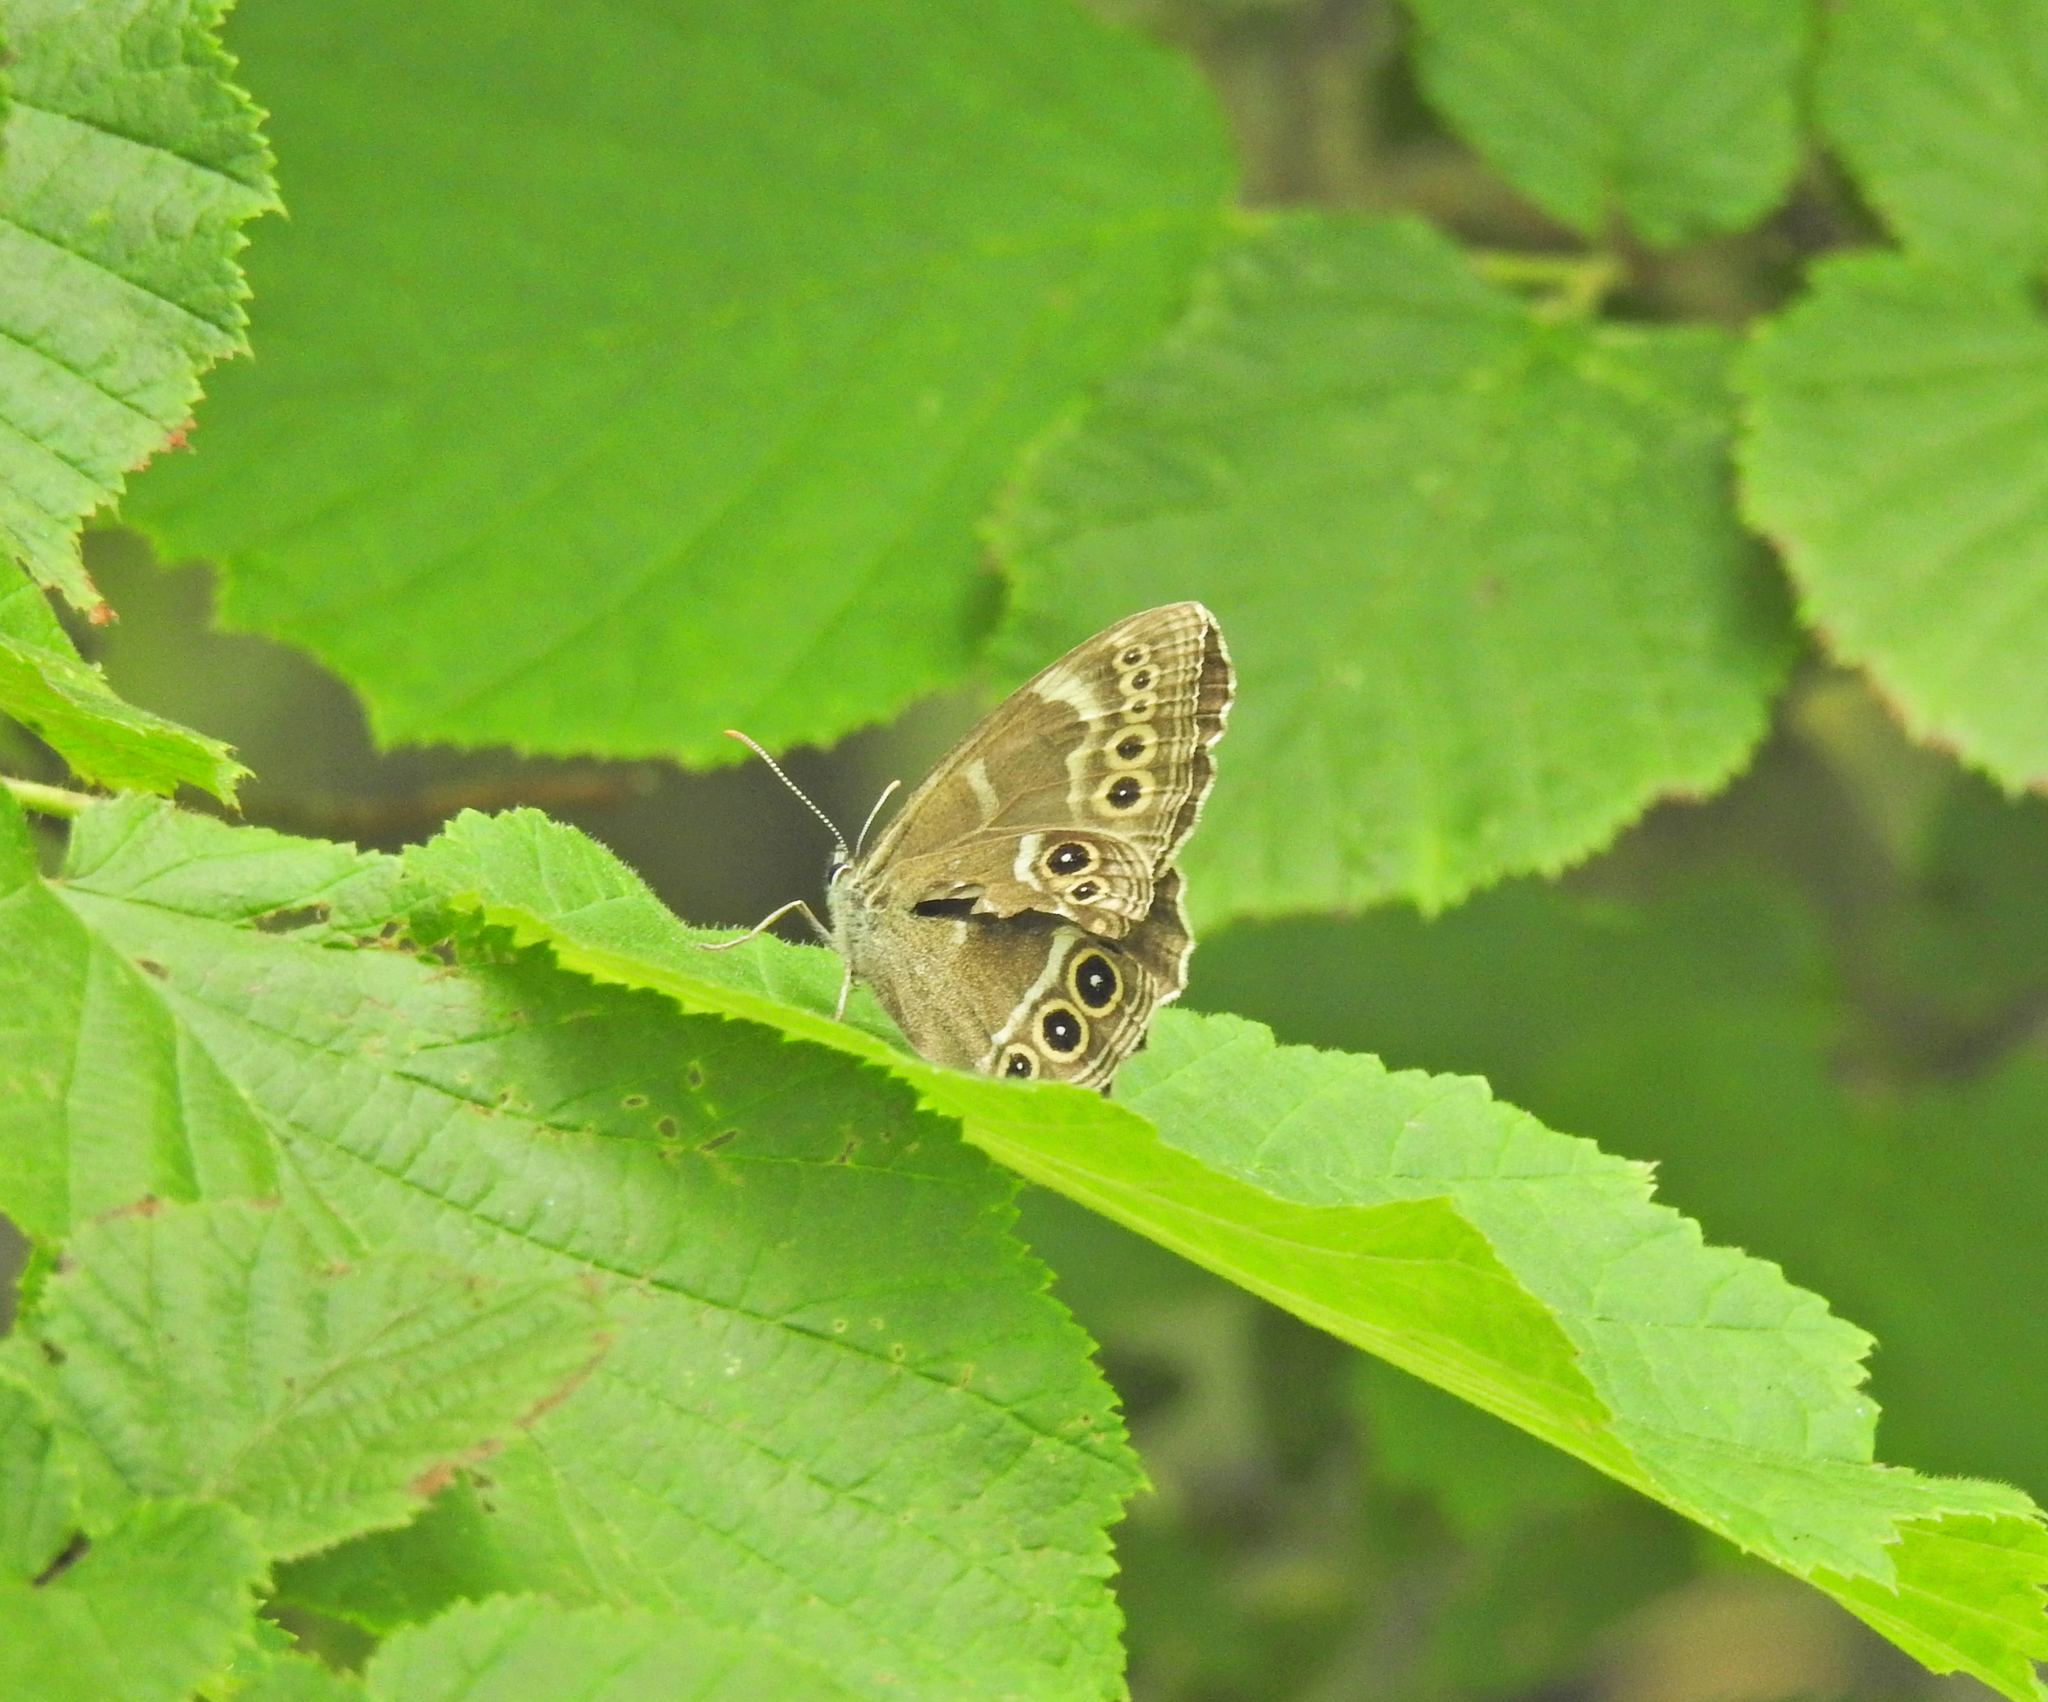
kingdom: Animalia
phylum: Arthropoda
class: Insecta
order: Lepidoptera
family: Nymphalidae
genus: Pararge
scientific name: Pararge Lopinga achine
